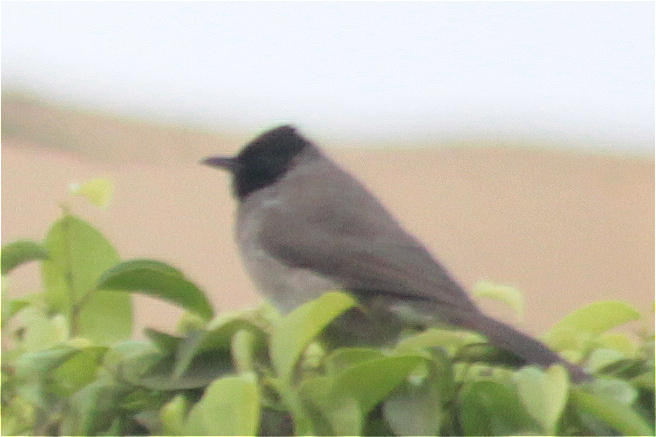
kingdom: Animalia
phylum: Chordata
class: Aves
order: Passeriformes
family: Pycnonotidae
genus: Pycnonotus
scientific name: Pycnonotus barbatus
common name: Common bulbul
